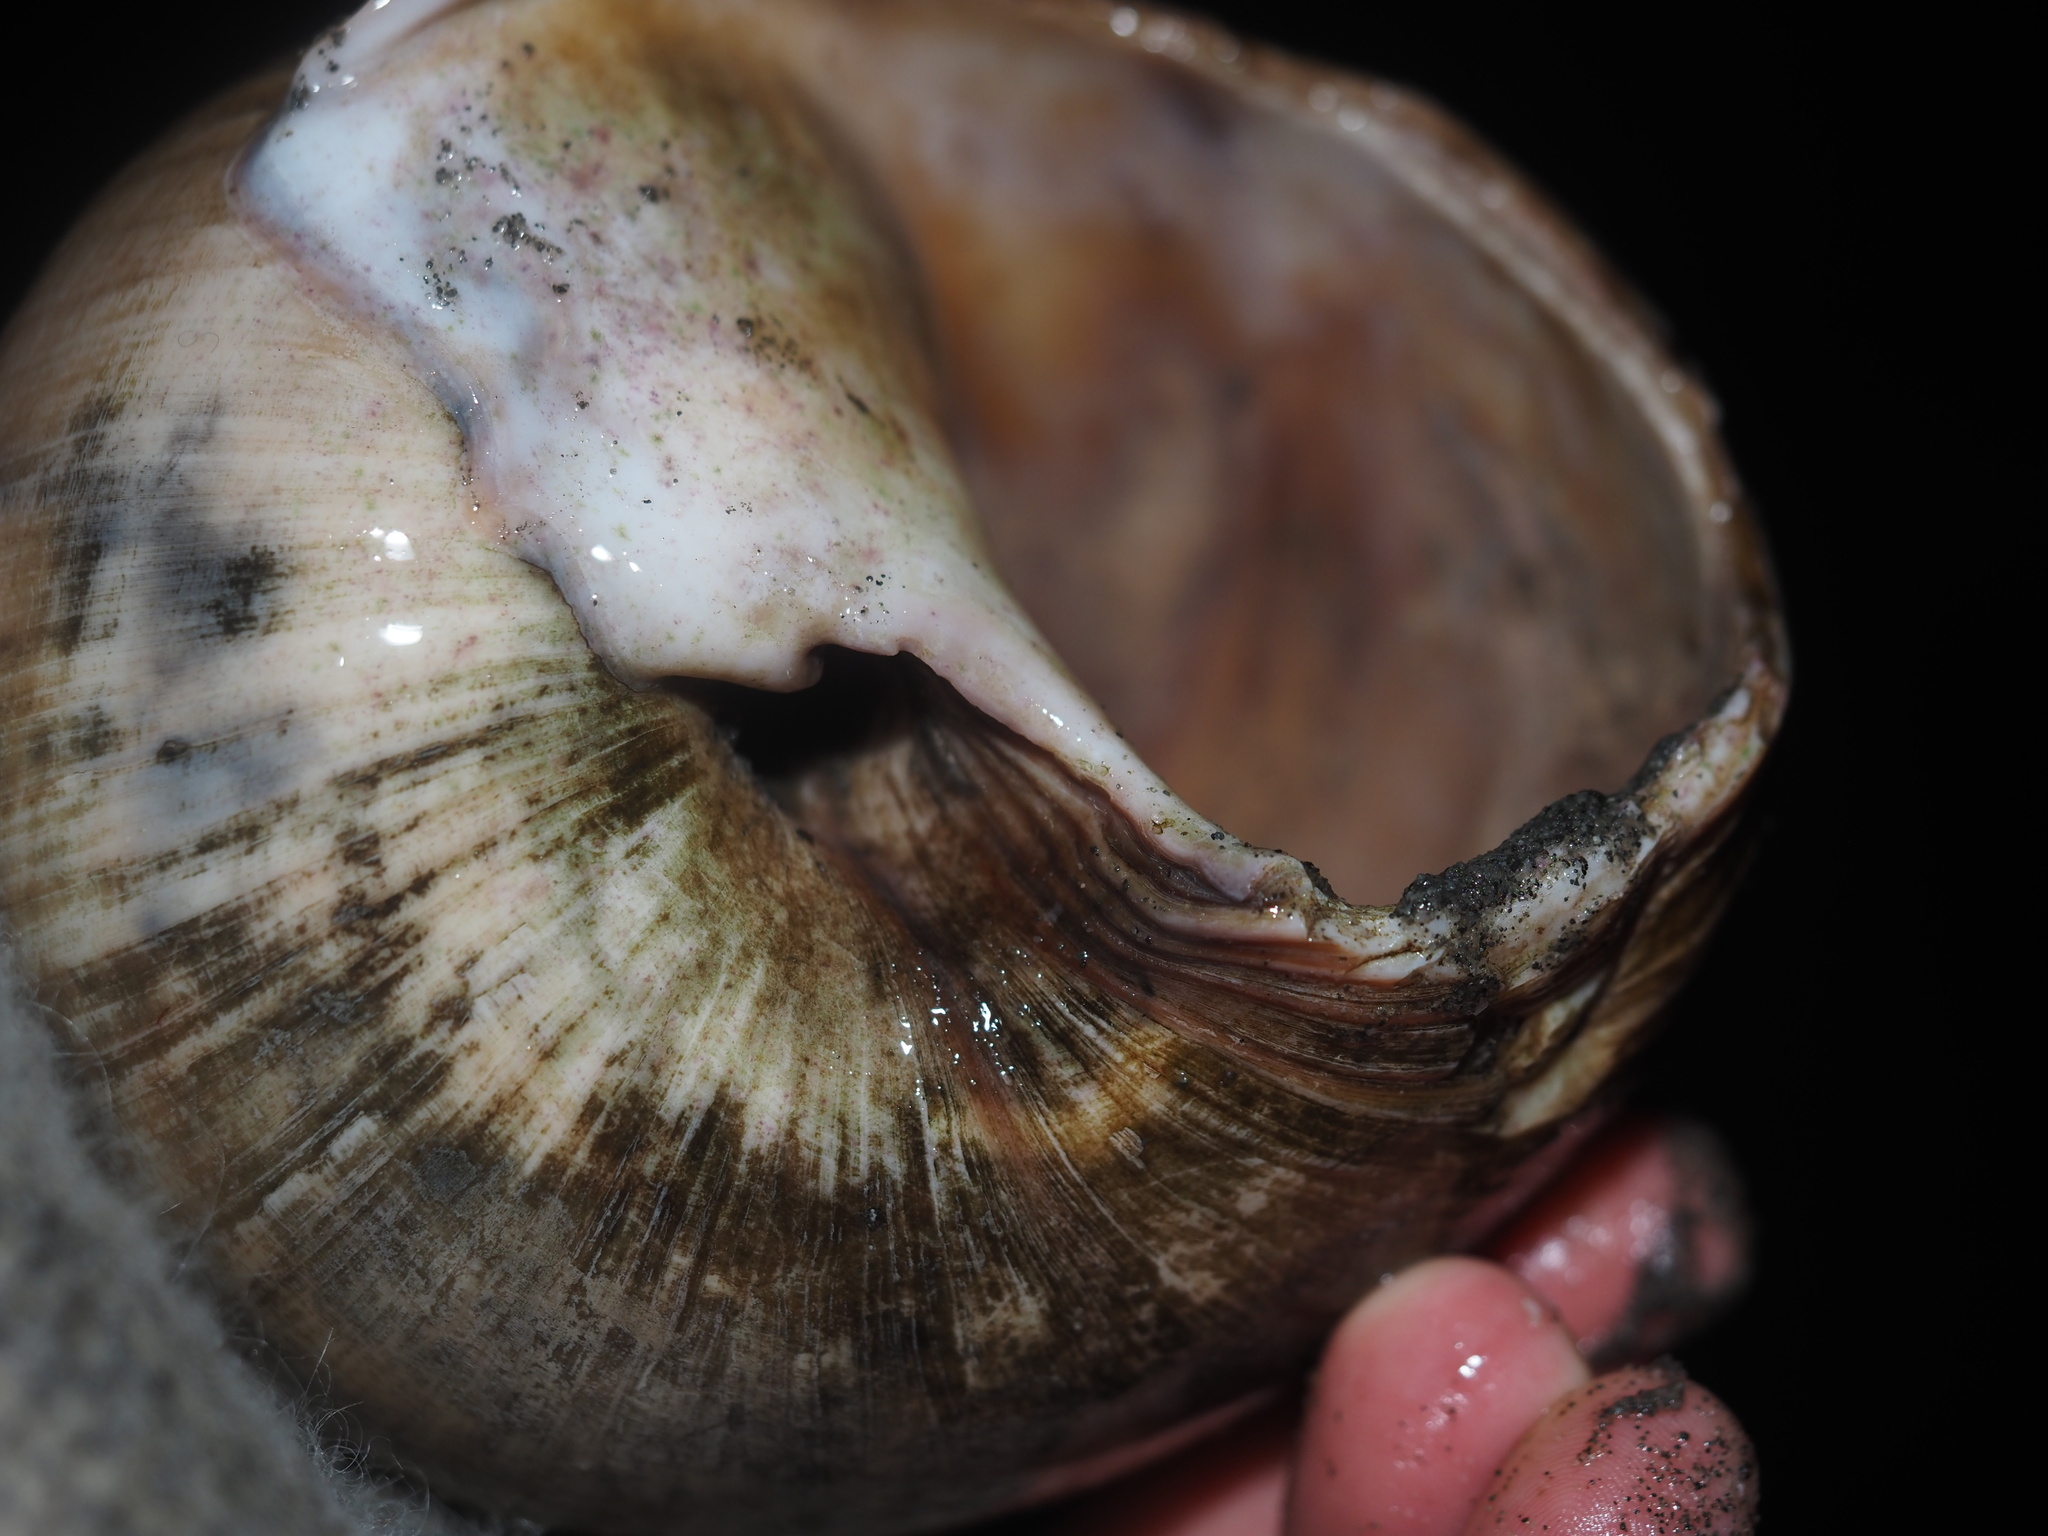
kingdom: Animalia
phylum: Mollusca
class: Gastropoda
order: Littorinimorpha
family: Naticidae
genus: Neverita
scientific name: Neverita lewisii
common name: Lewis' moonsnail
